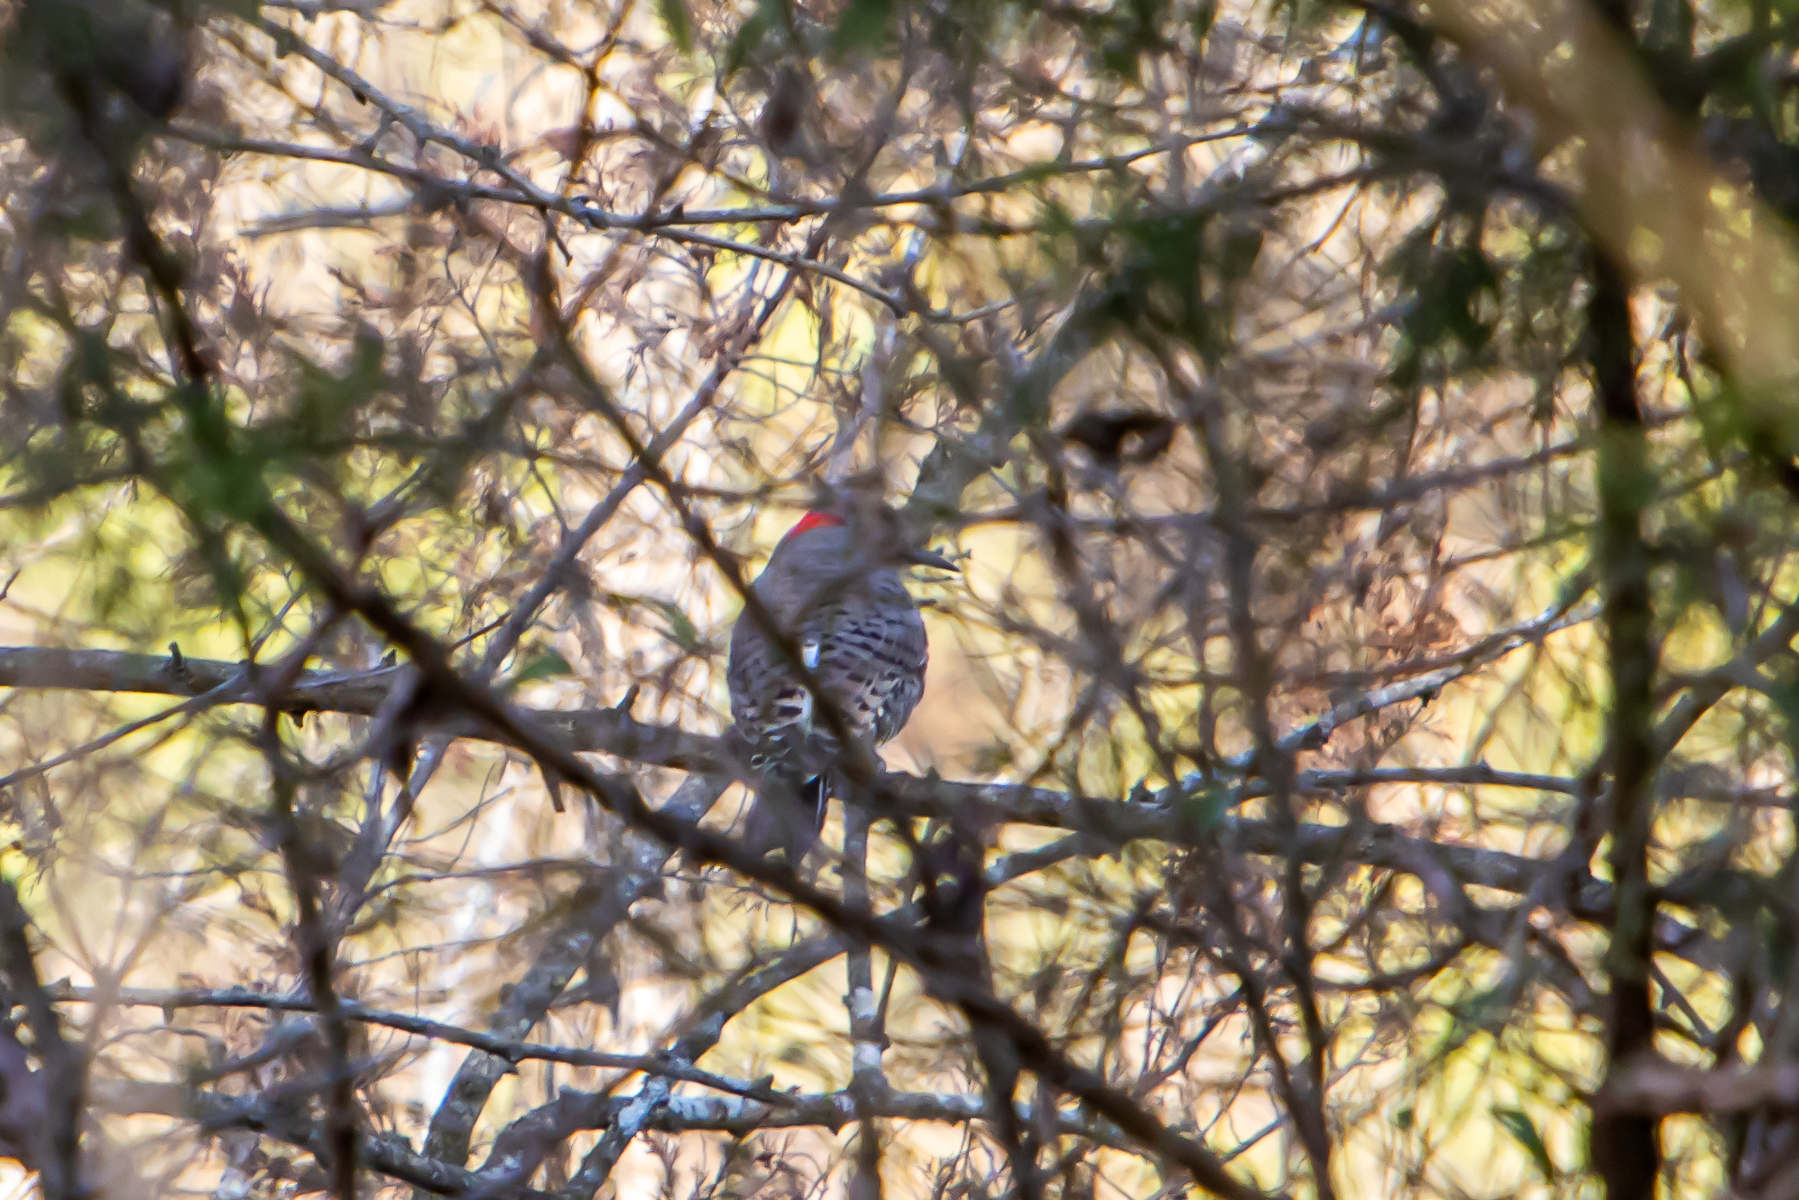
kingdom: Animalia
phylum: Chordata
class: Aves
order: Piciformes
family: Picidae
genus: Colaptes
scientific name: Colaptes auratus
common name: Northern flicker
